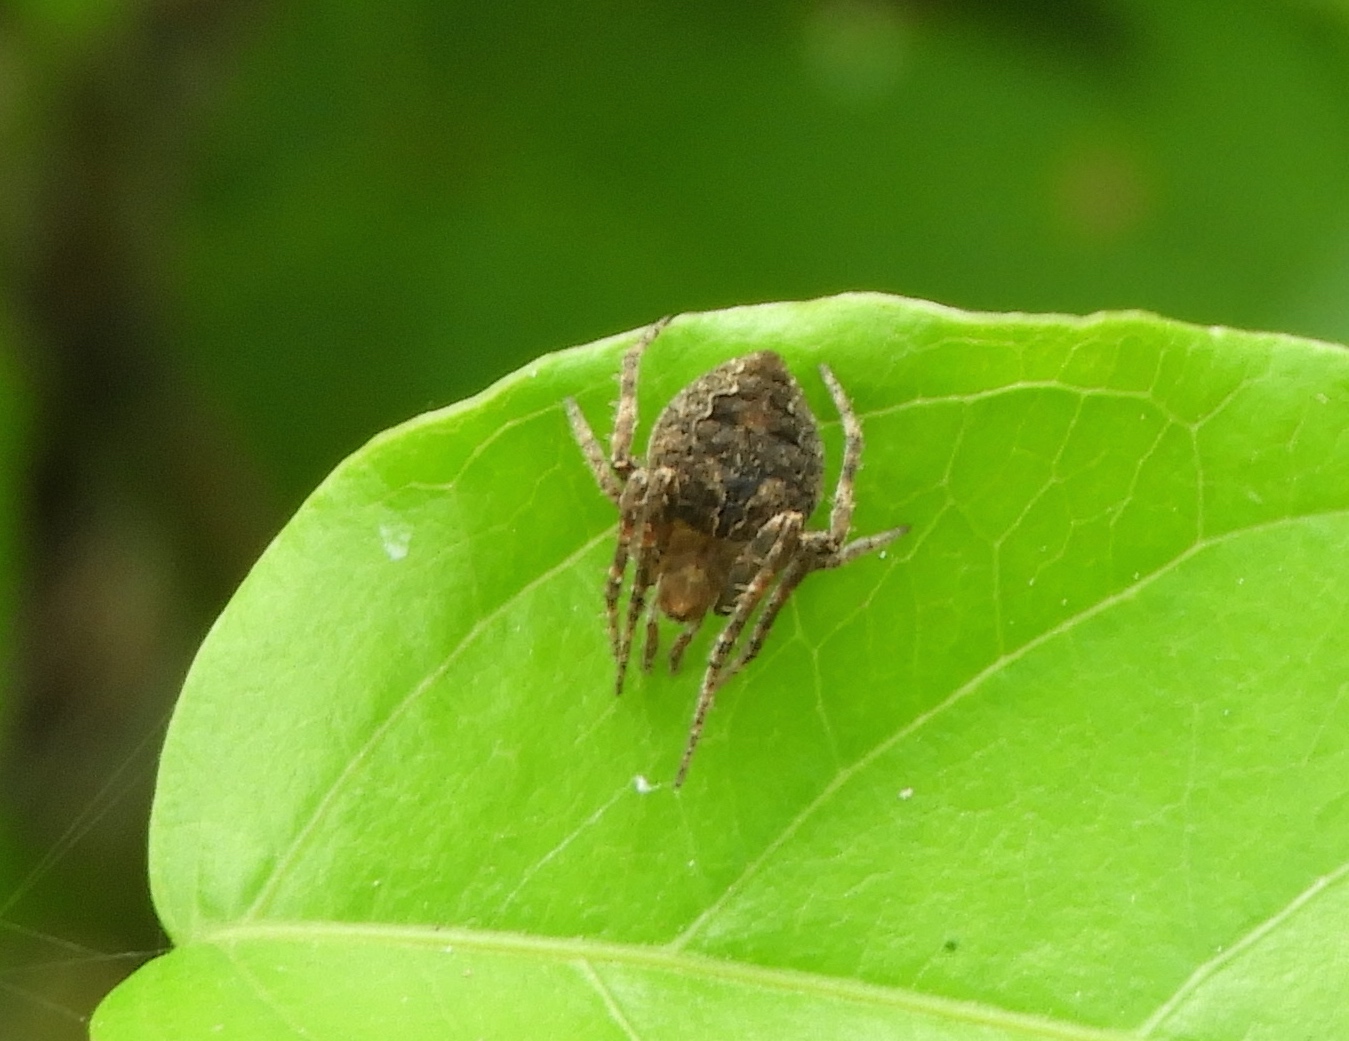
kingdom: Animalia
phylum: Arthropoda
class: Arachnida
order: Araneae
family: Araneidae
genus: Eustala
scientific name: Eustala
